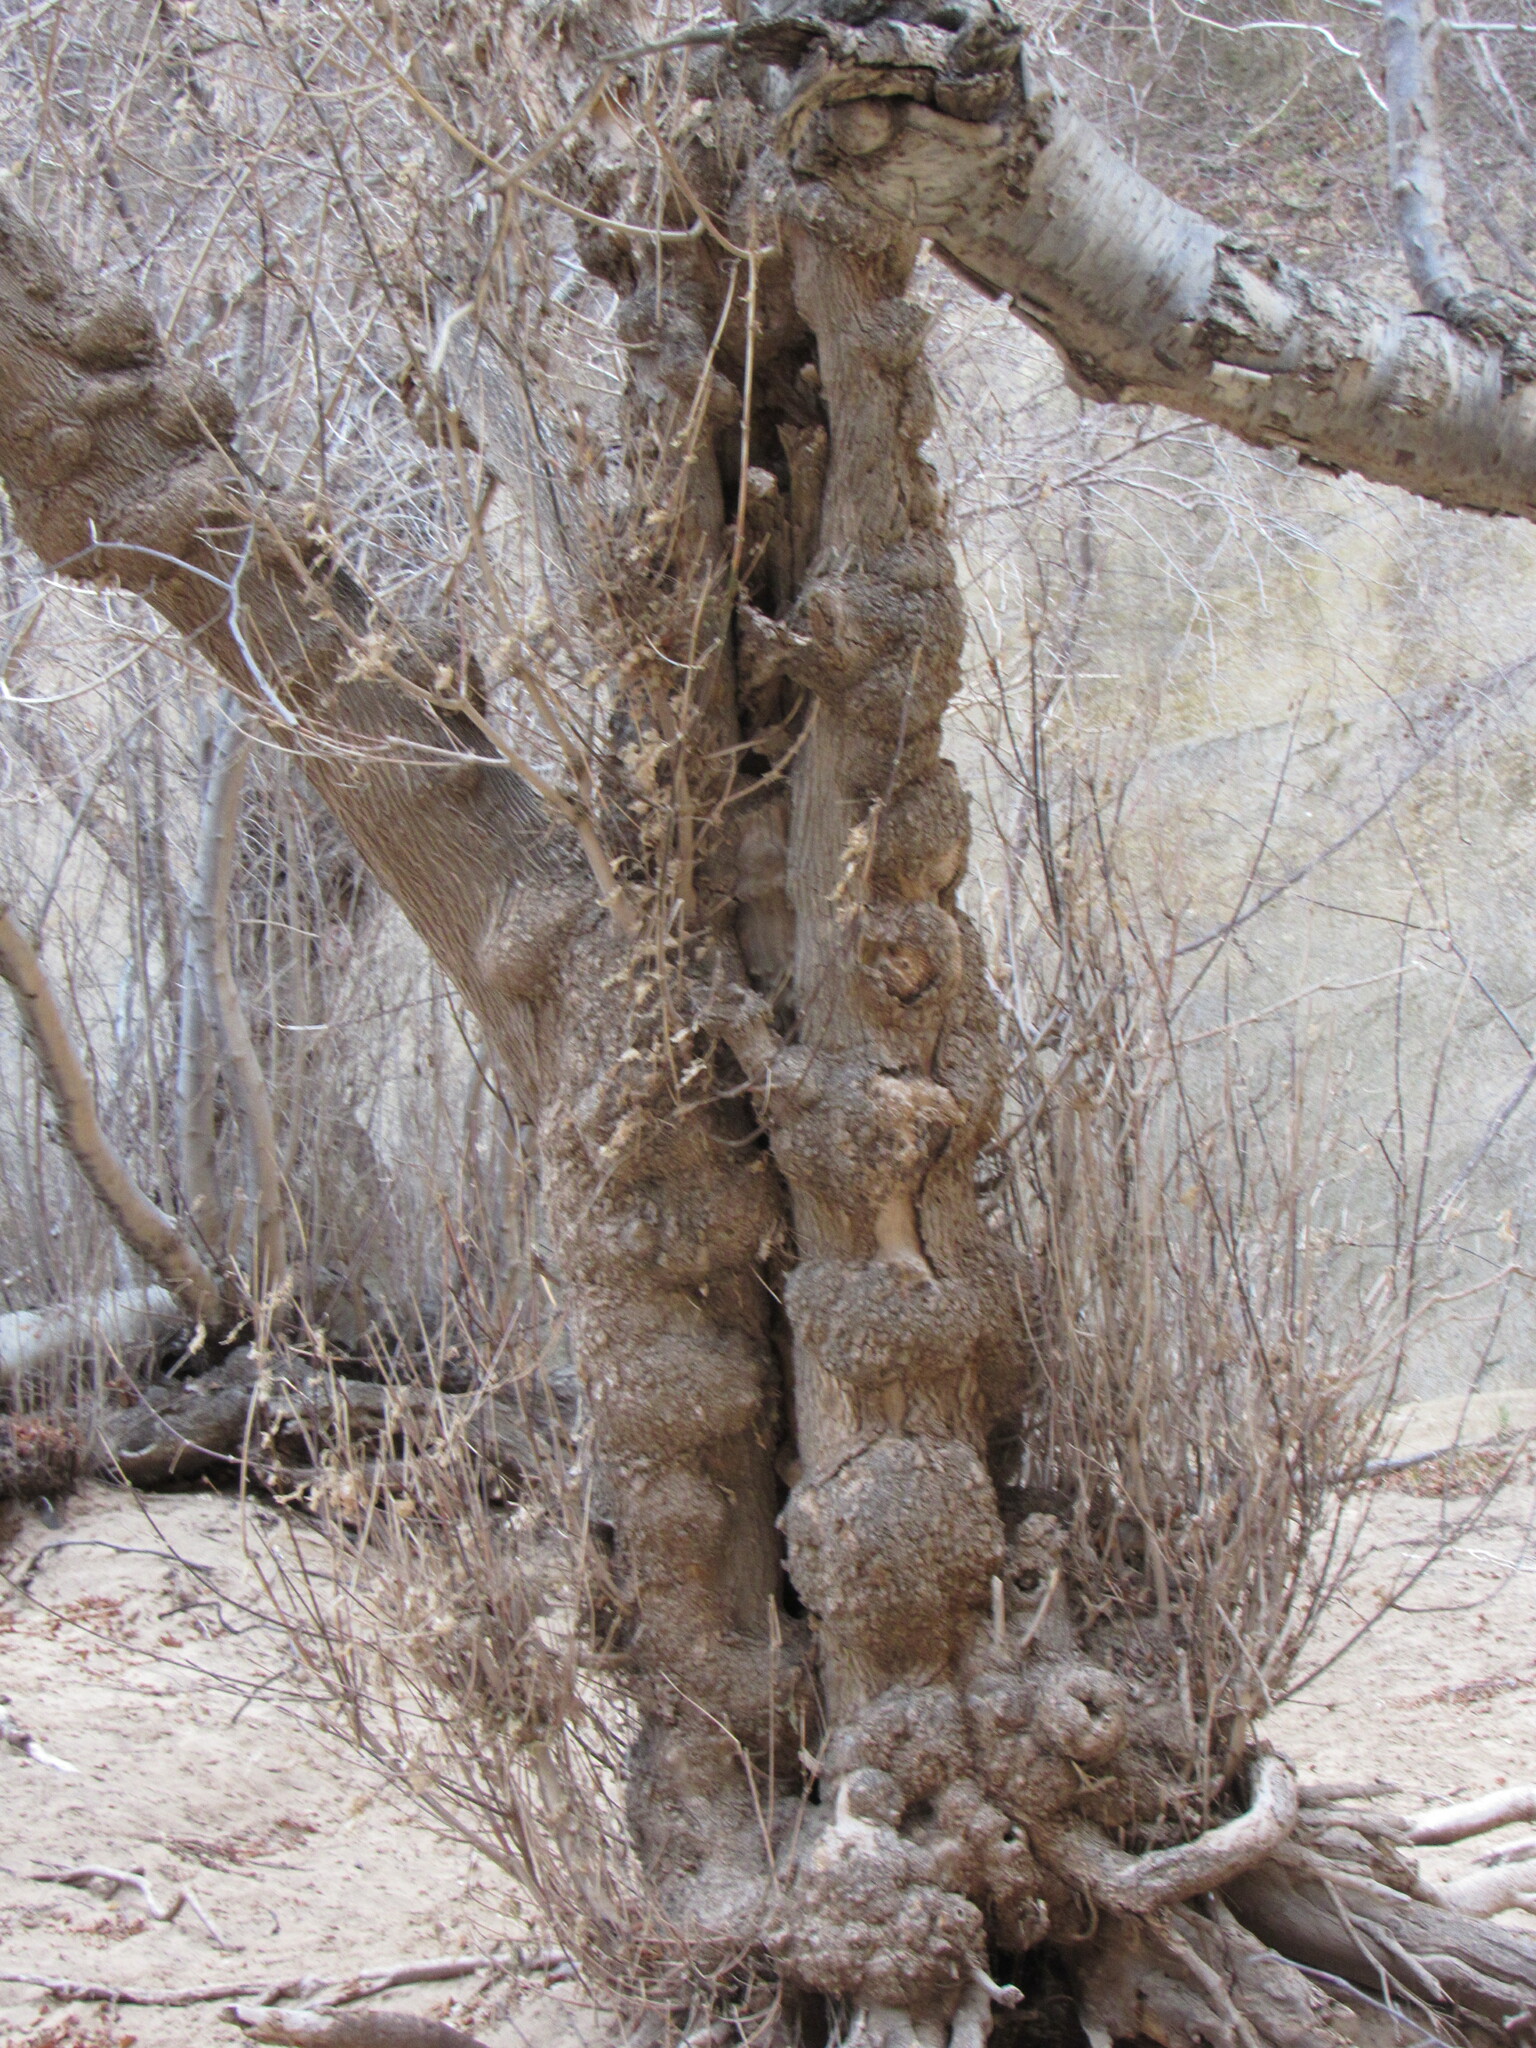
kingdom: Plantae
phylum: Tracheophyta
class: Magnoliopsida
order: Sapindales
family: Sapindaceae
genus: Acer
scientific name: Acer negundo
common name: Ashleaf maple
